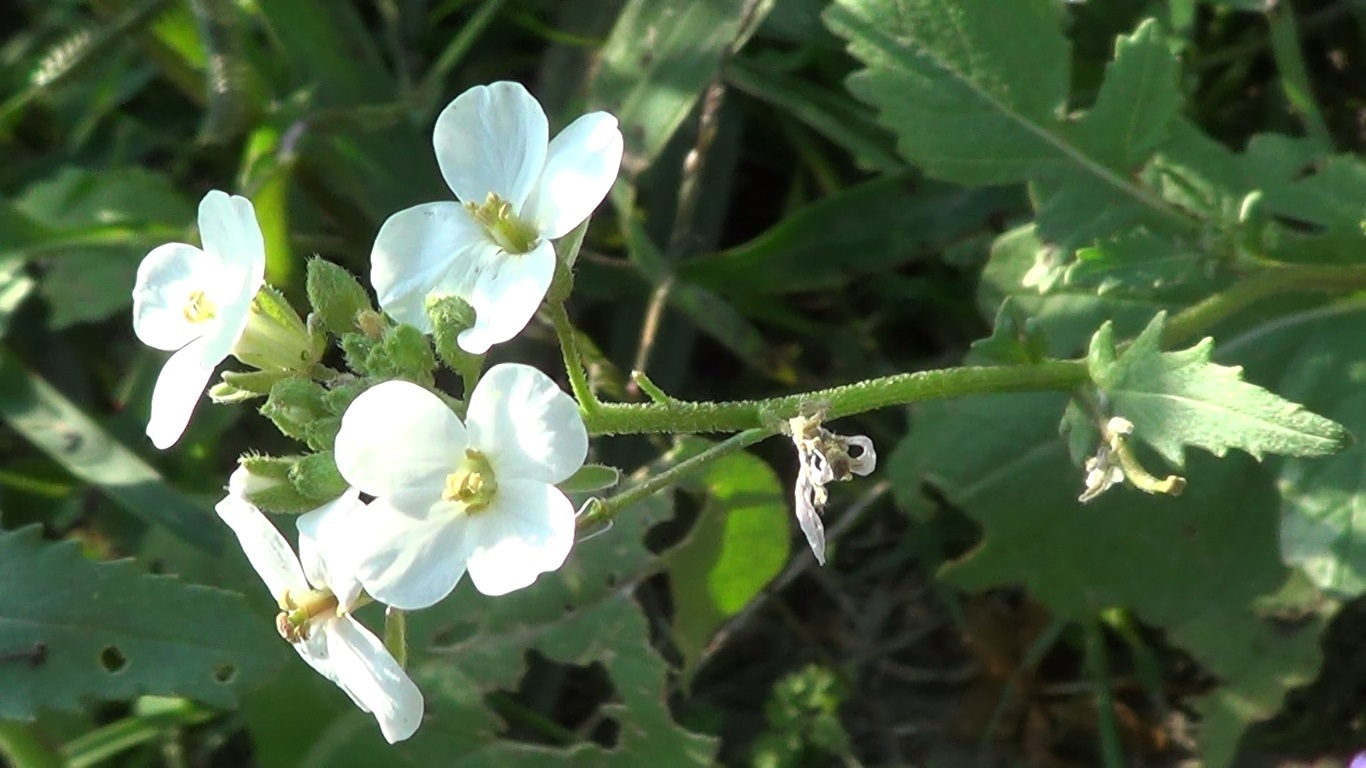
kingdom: Plantae
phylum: Tracheophyta
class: Magnoliopsida
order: Brassicales
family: Brassicaceae
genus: Diplotaxis
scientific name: Diplotaxis erucoides
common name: White rocket
